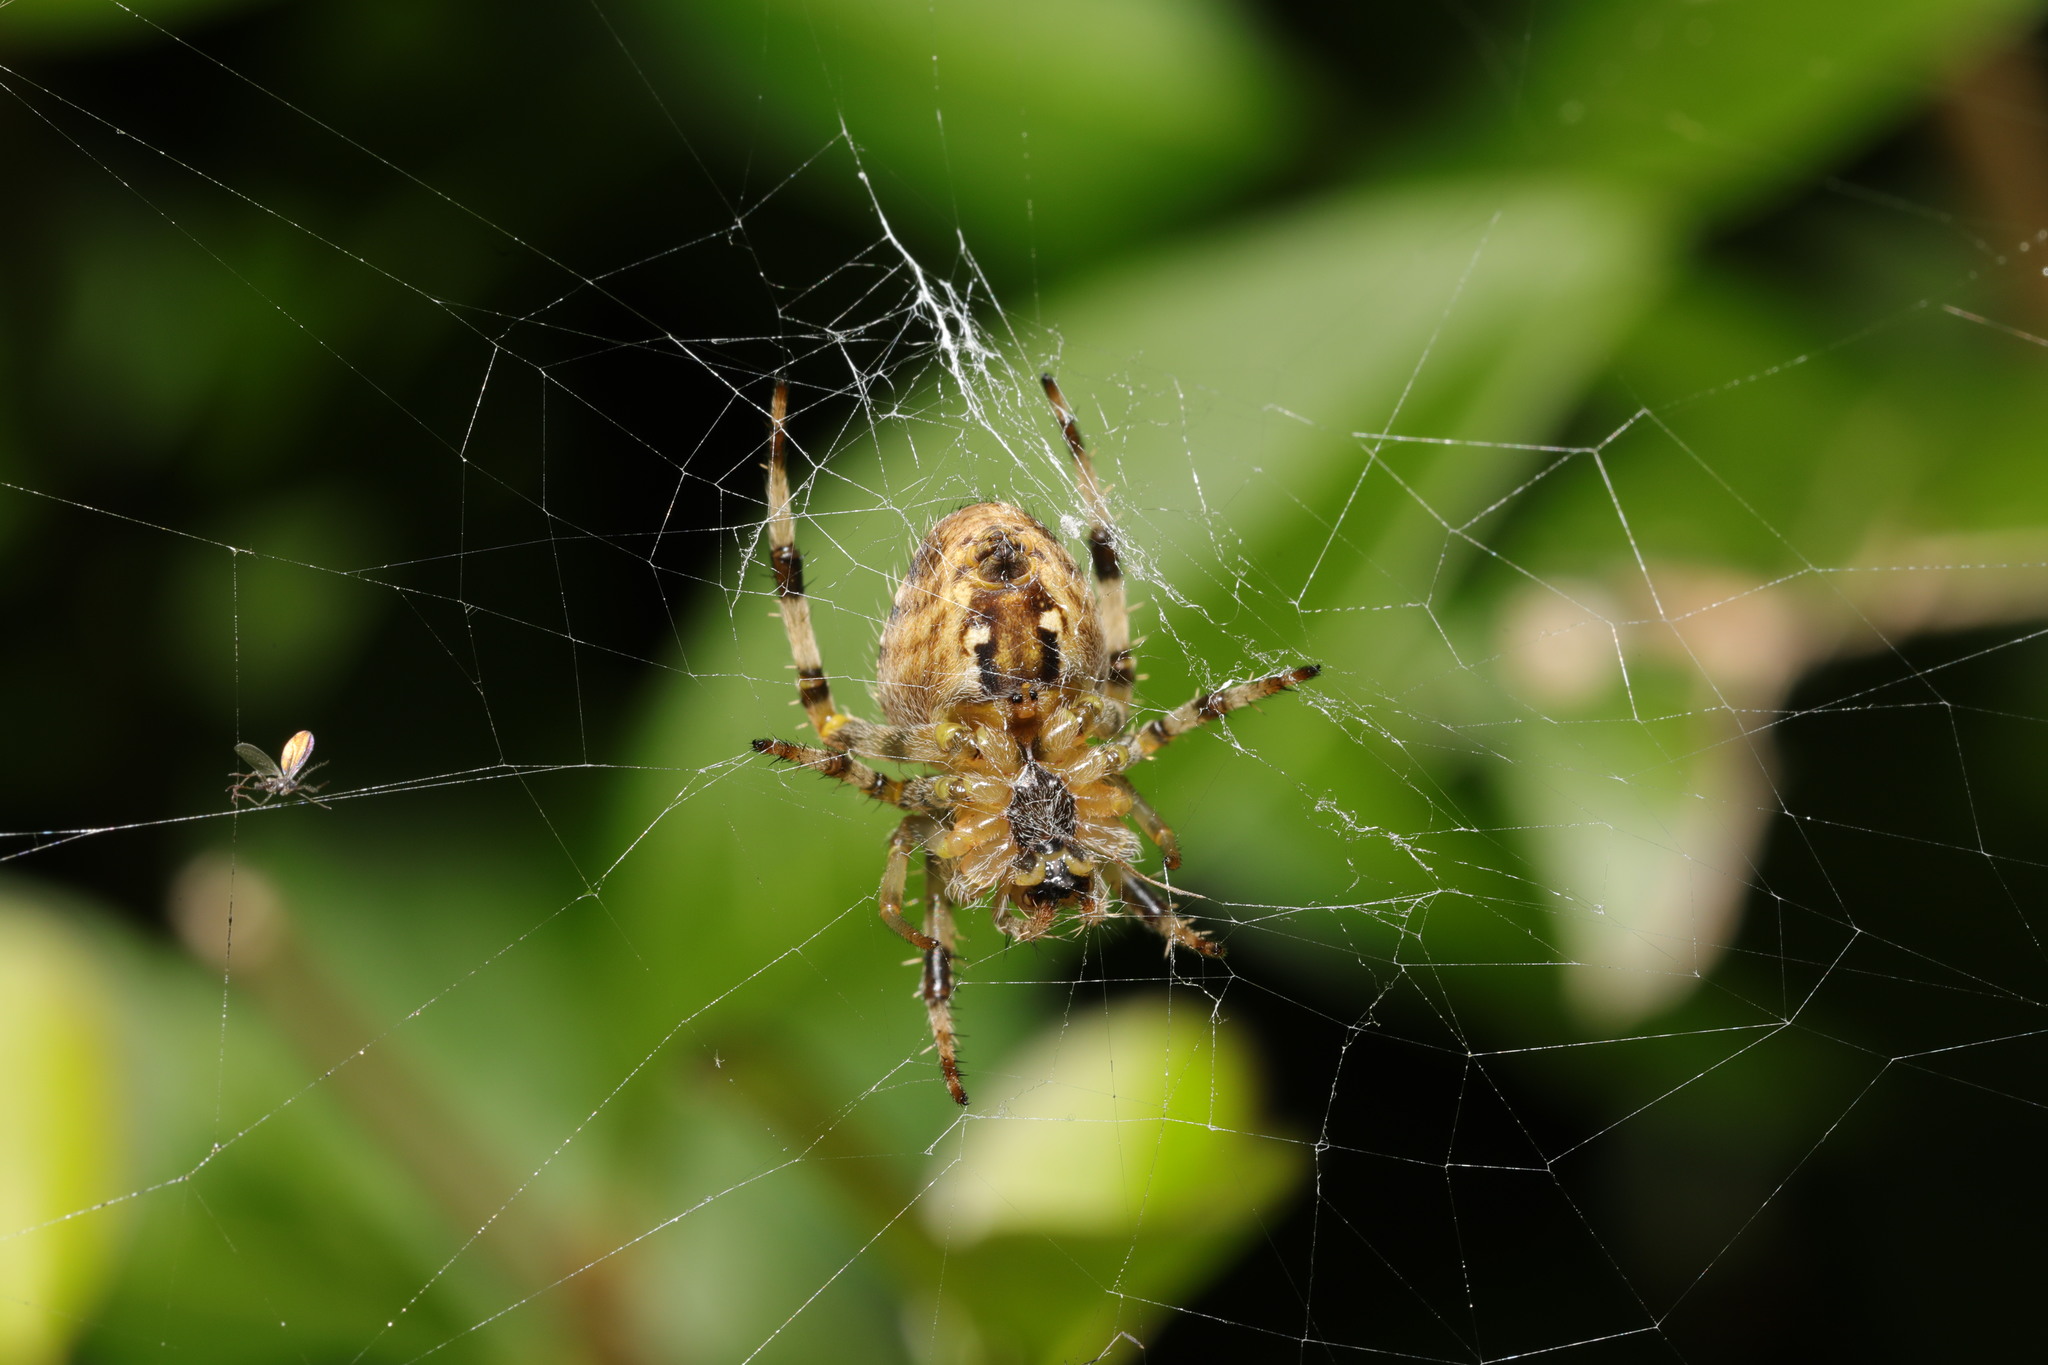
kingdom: Animalia
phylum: Arthropoda
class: Arachnida
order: Araneae
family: Araneidae
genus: Araneus
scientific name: Araneus diadematus
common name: Cross orbweaver
